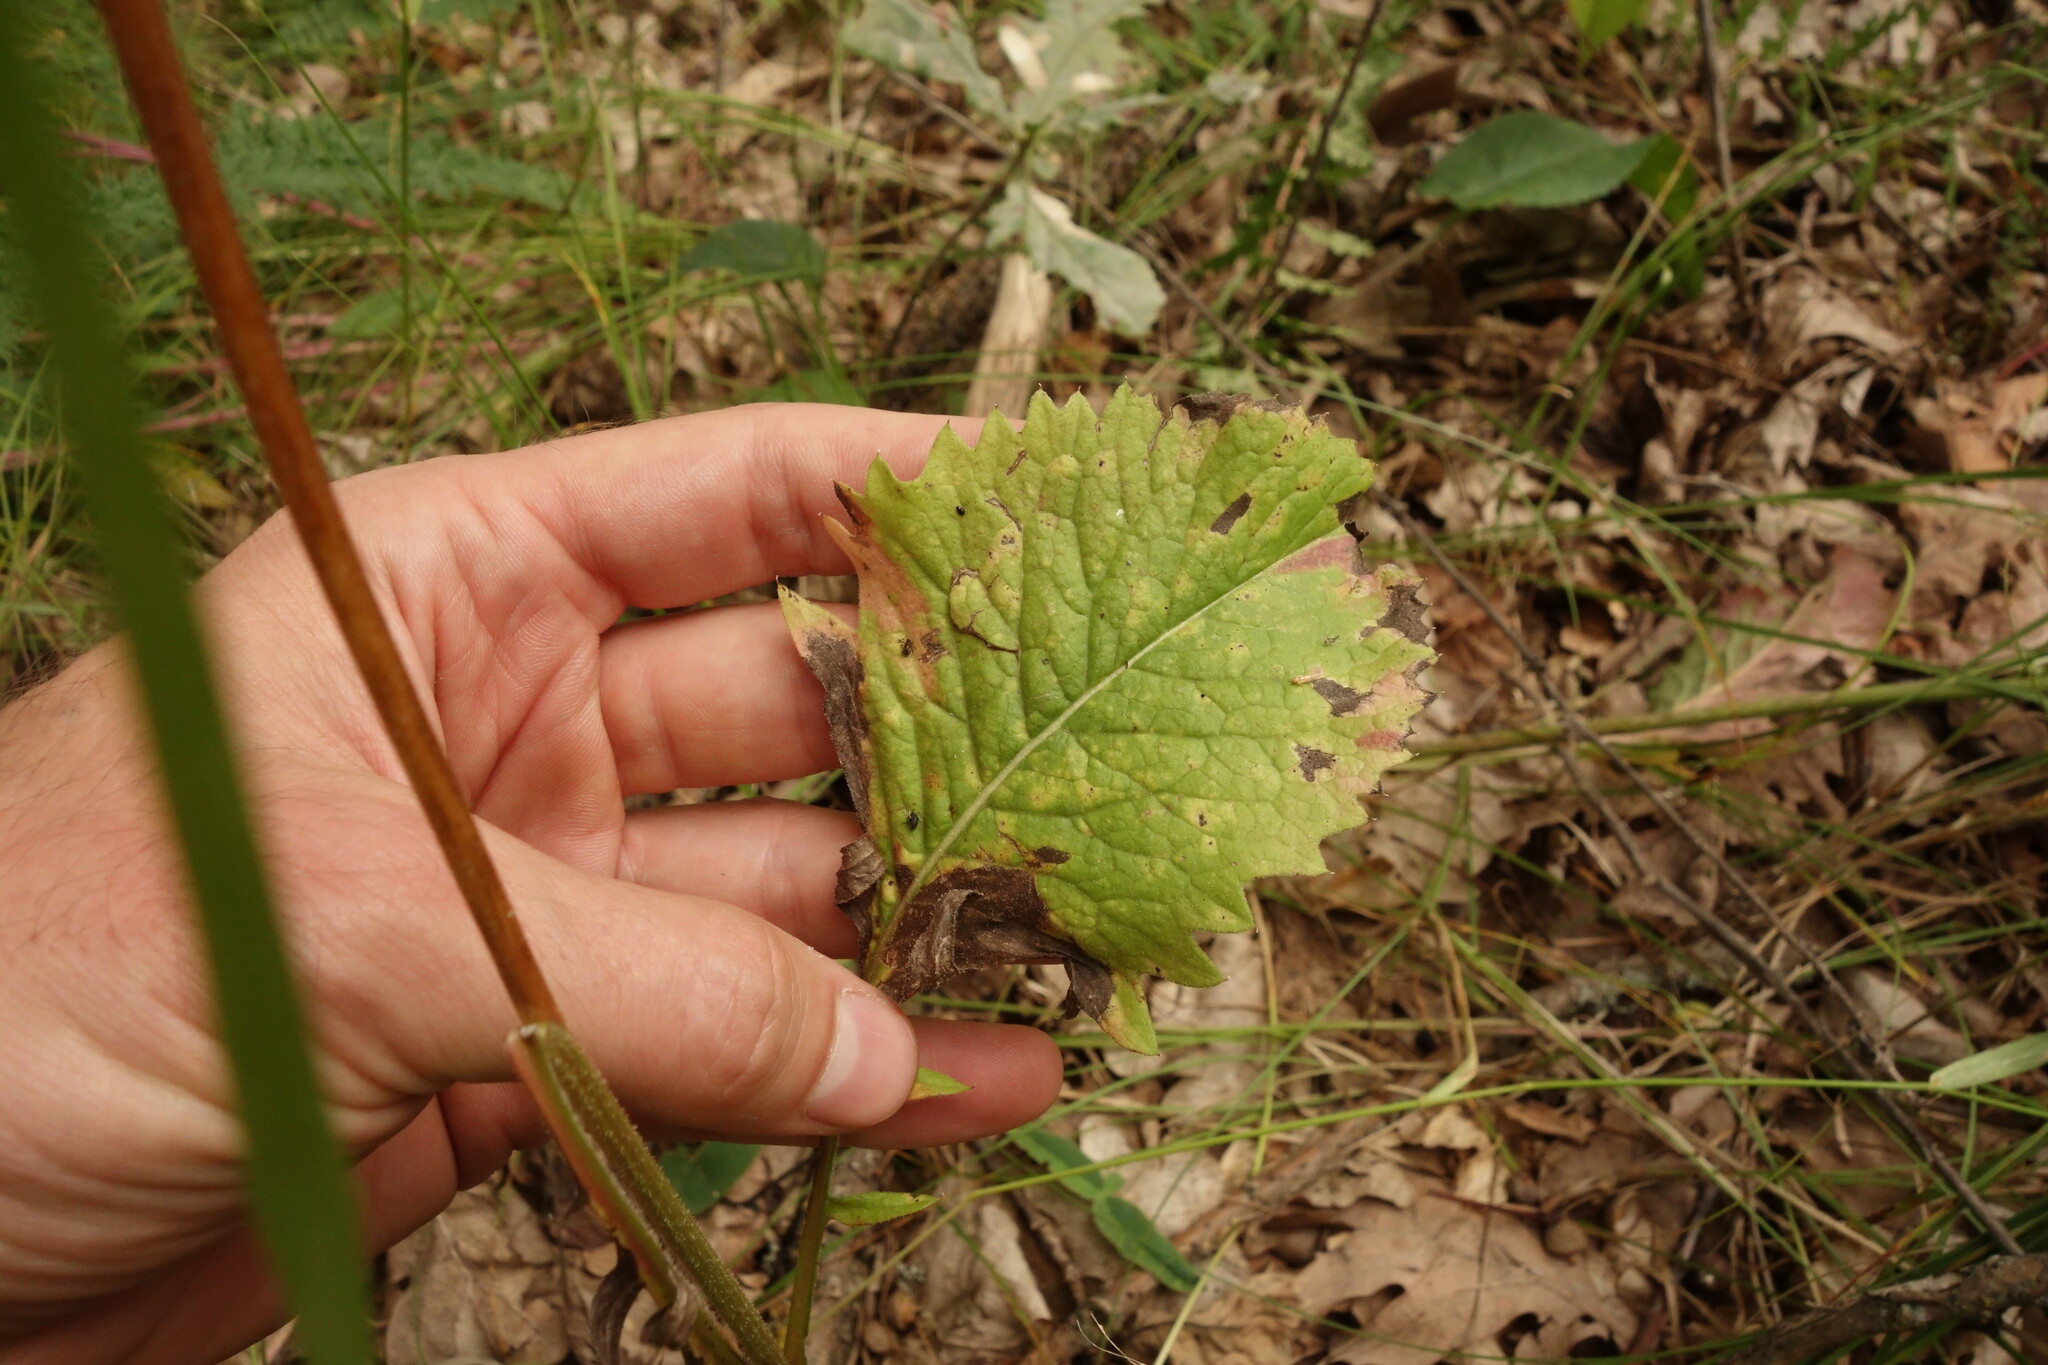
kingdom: Plantae
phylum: Tracheophyta
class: Magnoliopsida
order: Asterales
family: Asteraceae
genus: Klasea
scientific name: Klasea lycopifolia
